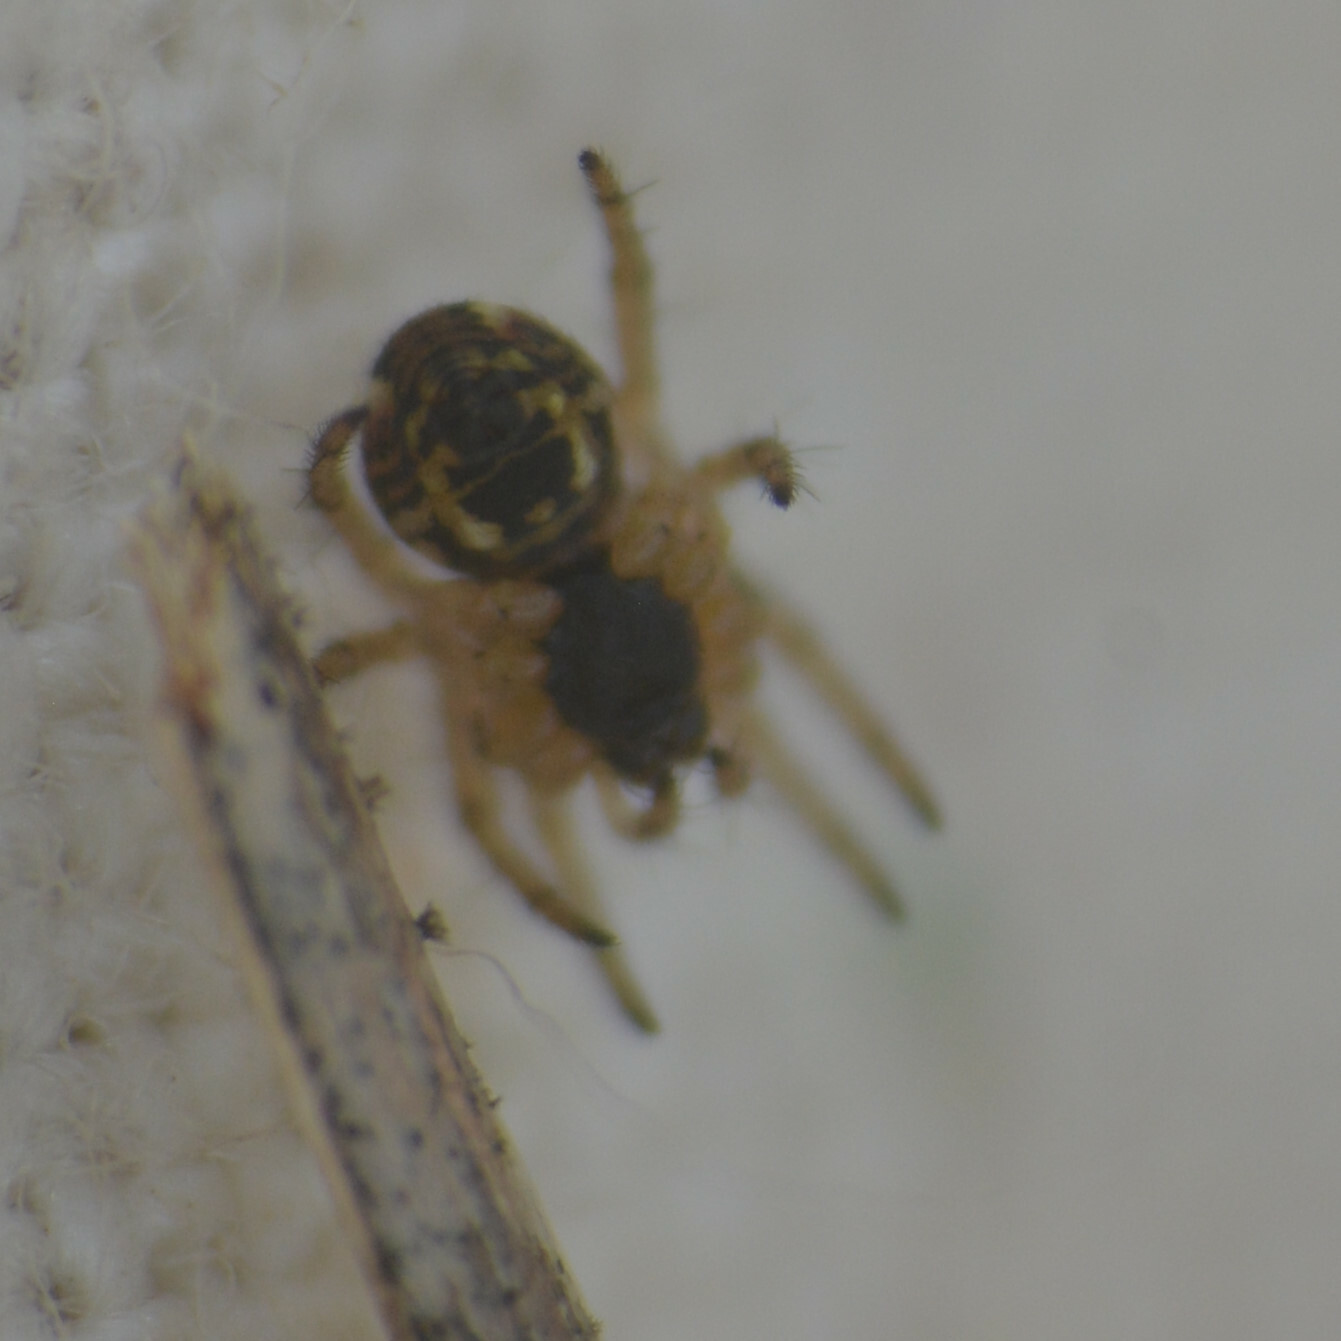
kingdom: Animalia
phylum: Arthropoda
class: Arachnida
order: Araneae
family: Araneidae
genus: Mangora
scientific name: Mangora acalypha
